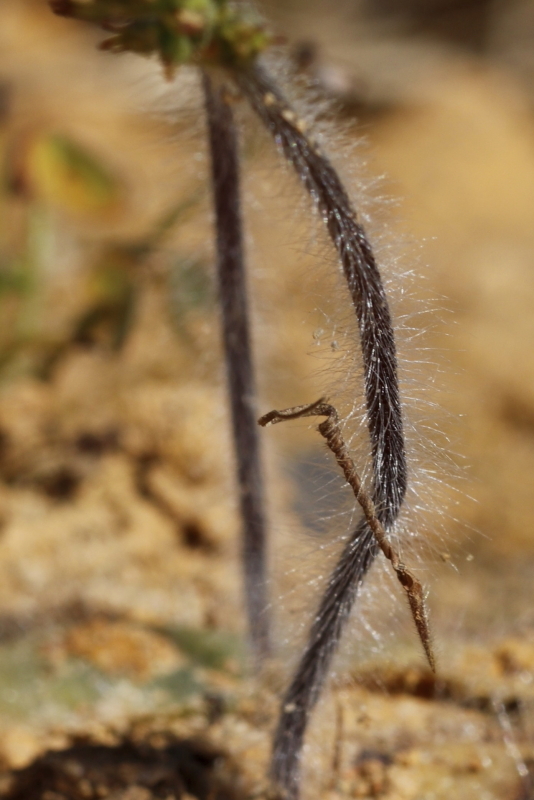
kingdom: Plantae
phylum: Tracheophyta
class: Liliopsida
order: Asparagales
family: Orchidaceae
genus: Holothrix
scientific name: Holothrix villosa
